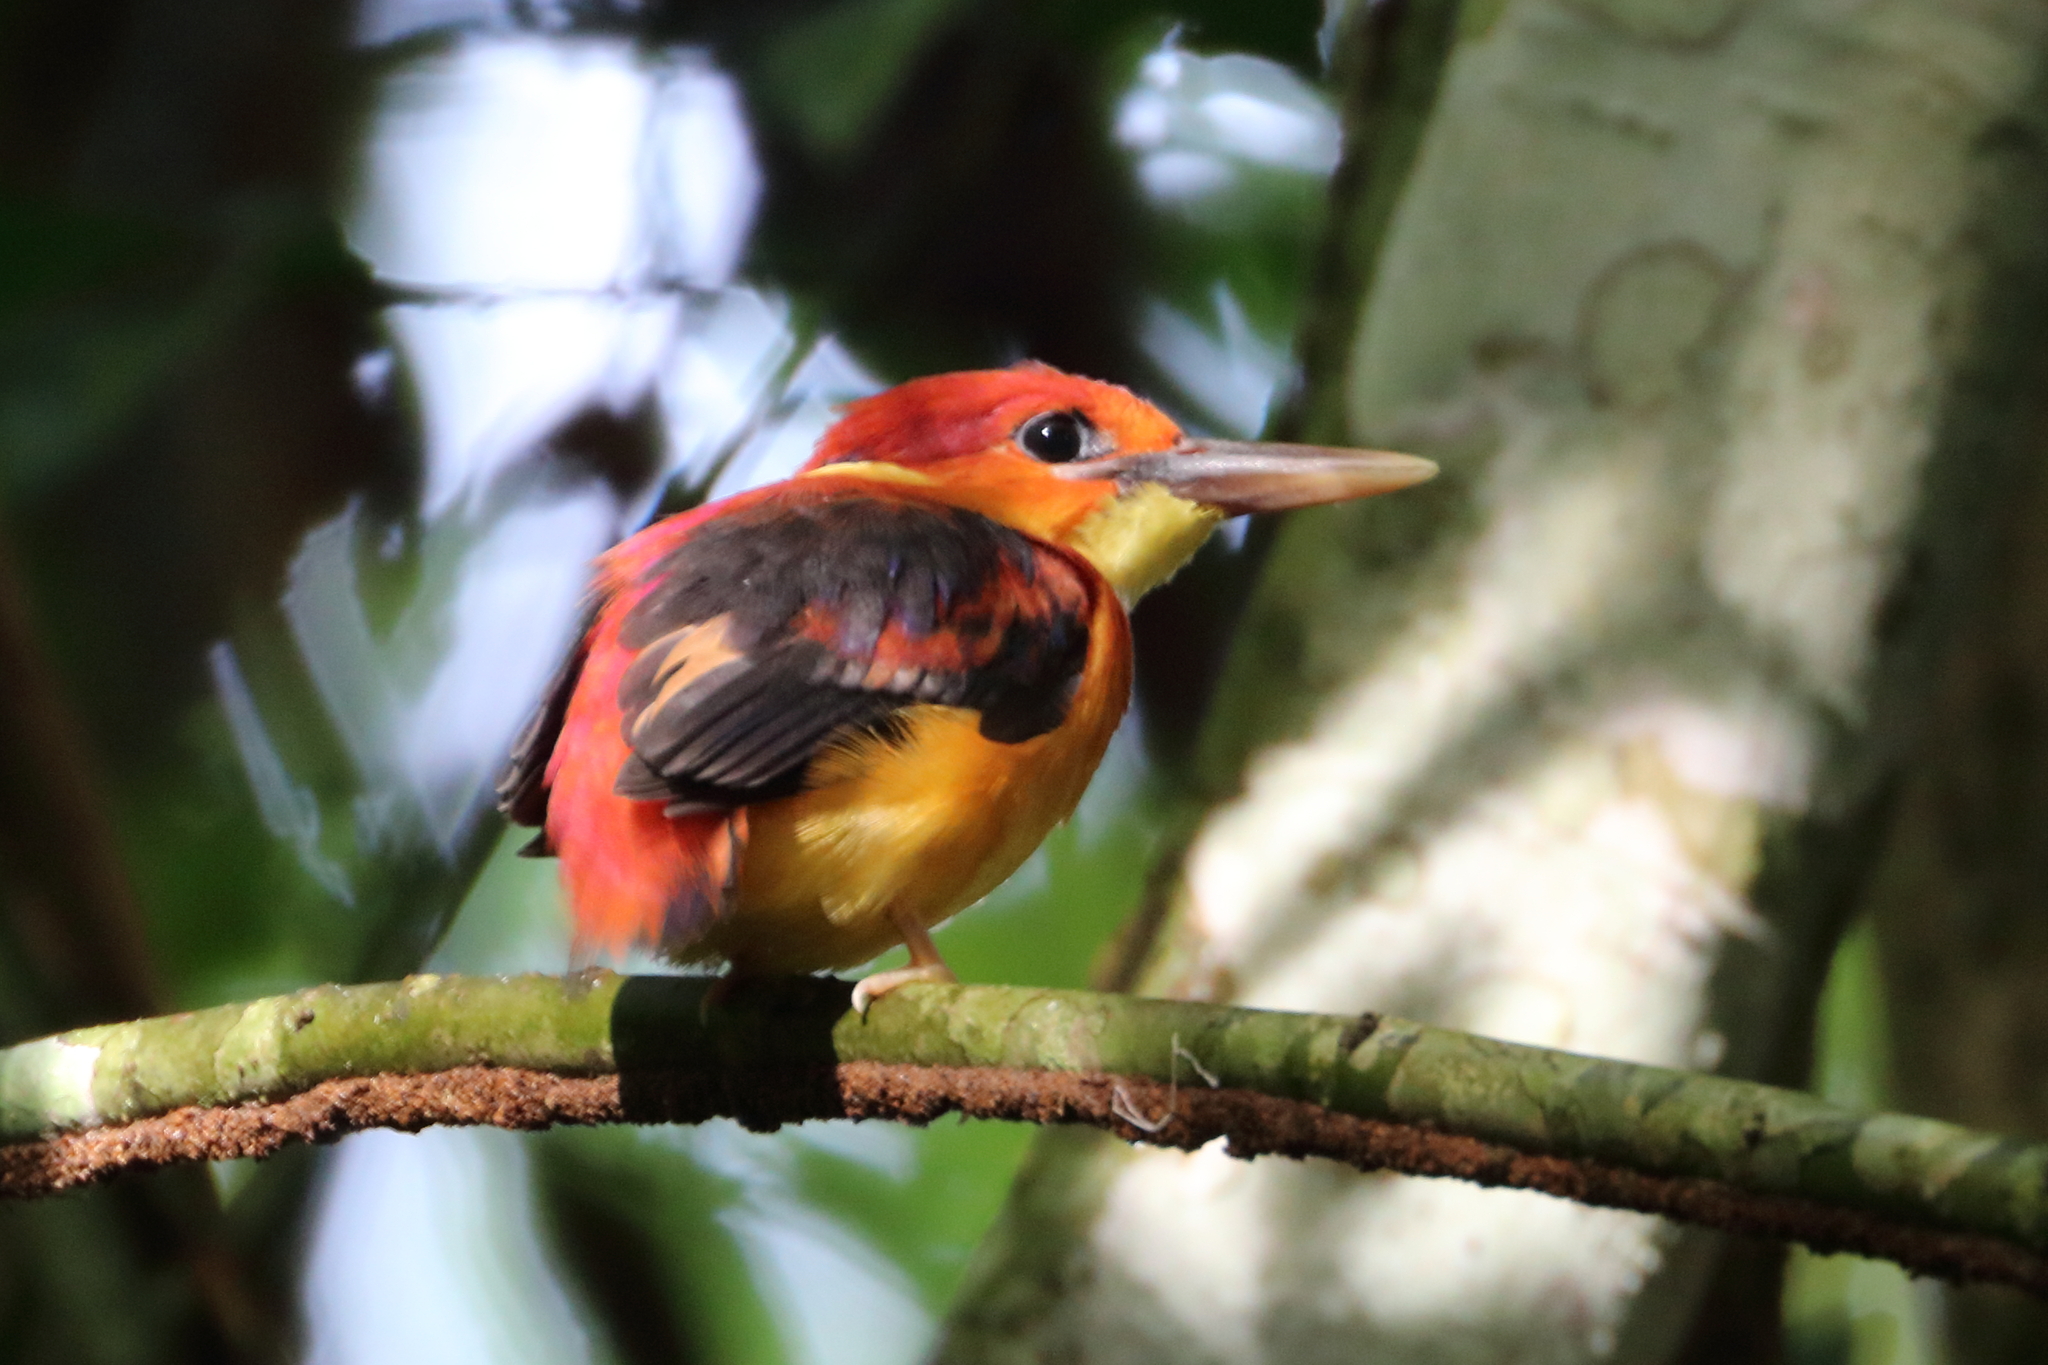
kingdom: Animalia
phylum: Chordata
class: Aves
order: Coraciiformes
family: Alcedinidae
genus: Ceyx
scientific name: Ceyx erithaca
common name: Oriental dwarf kingfisher
